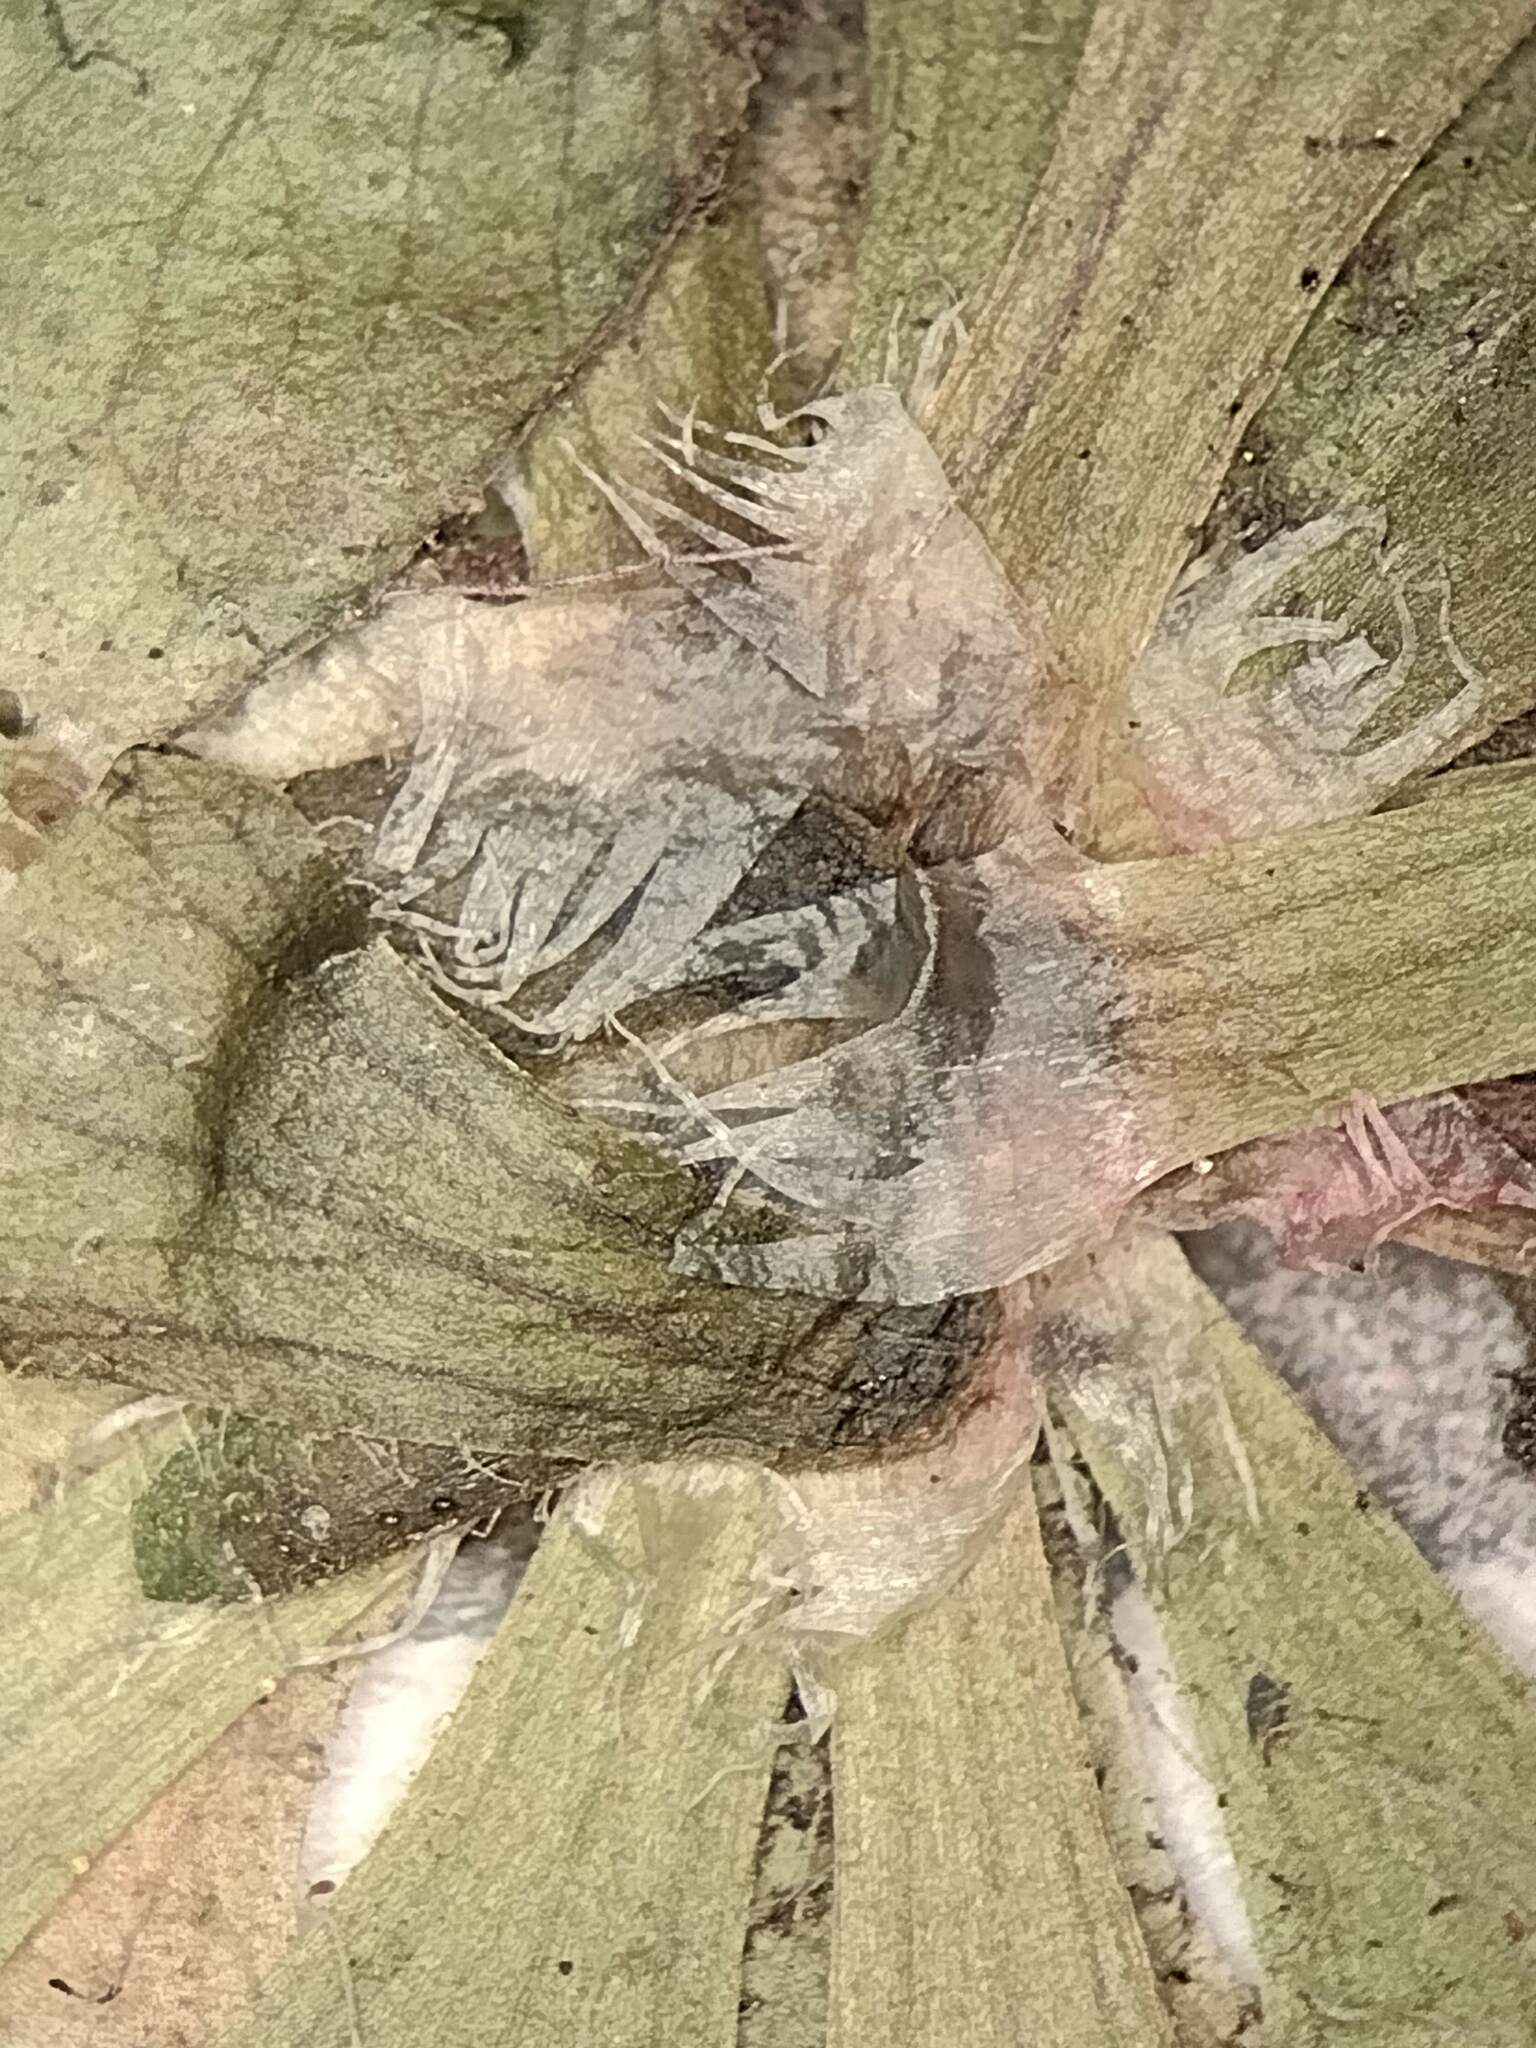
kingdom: Plantae
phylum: Tracheophyta
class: Magnoliopsida
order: Caryophyllales
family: Droseraceae
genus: Drosera
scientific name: Drosera spatulata
